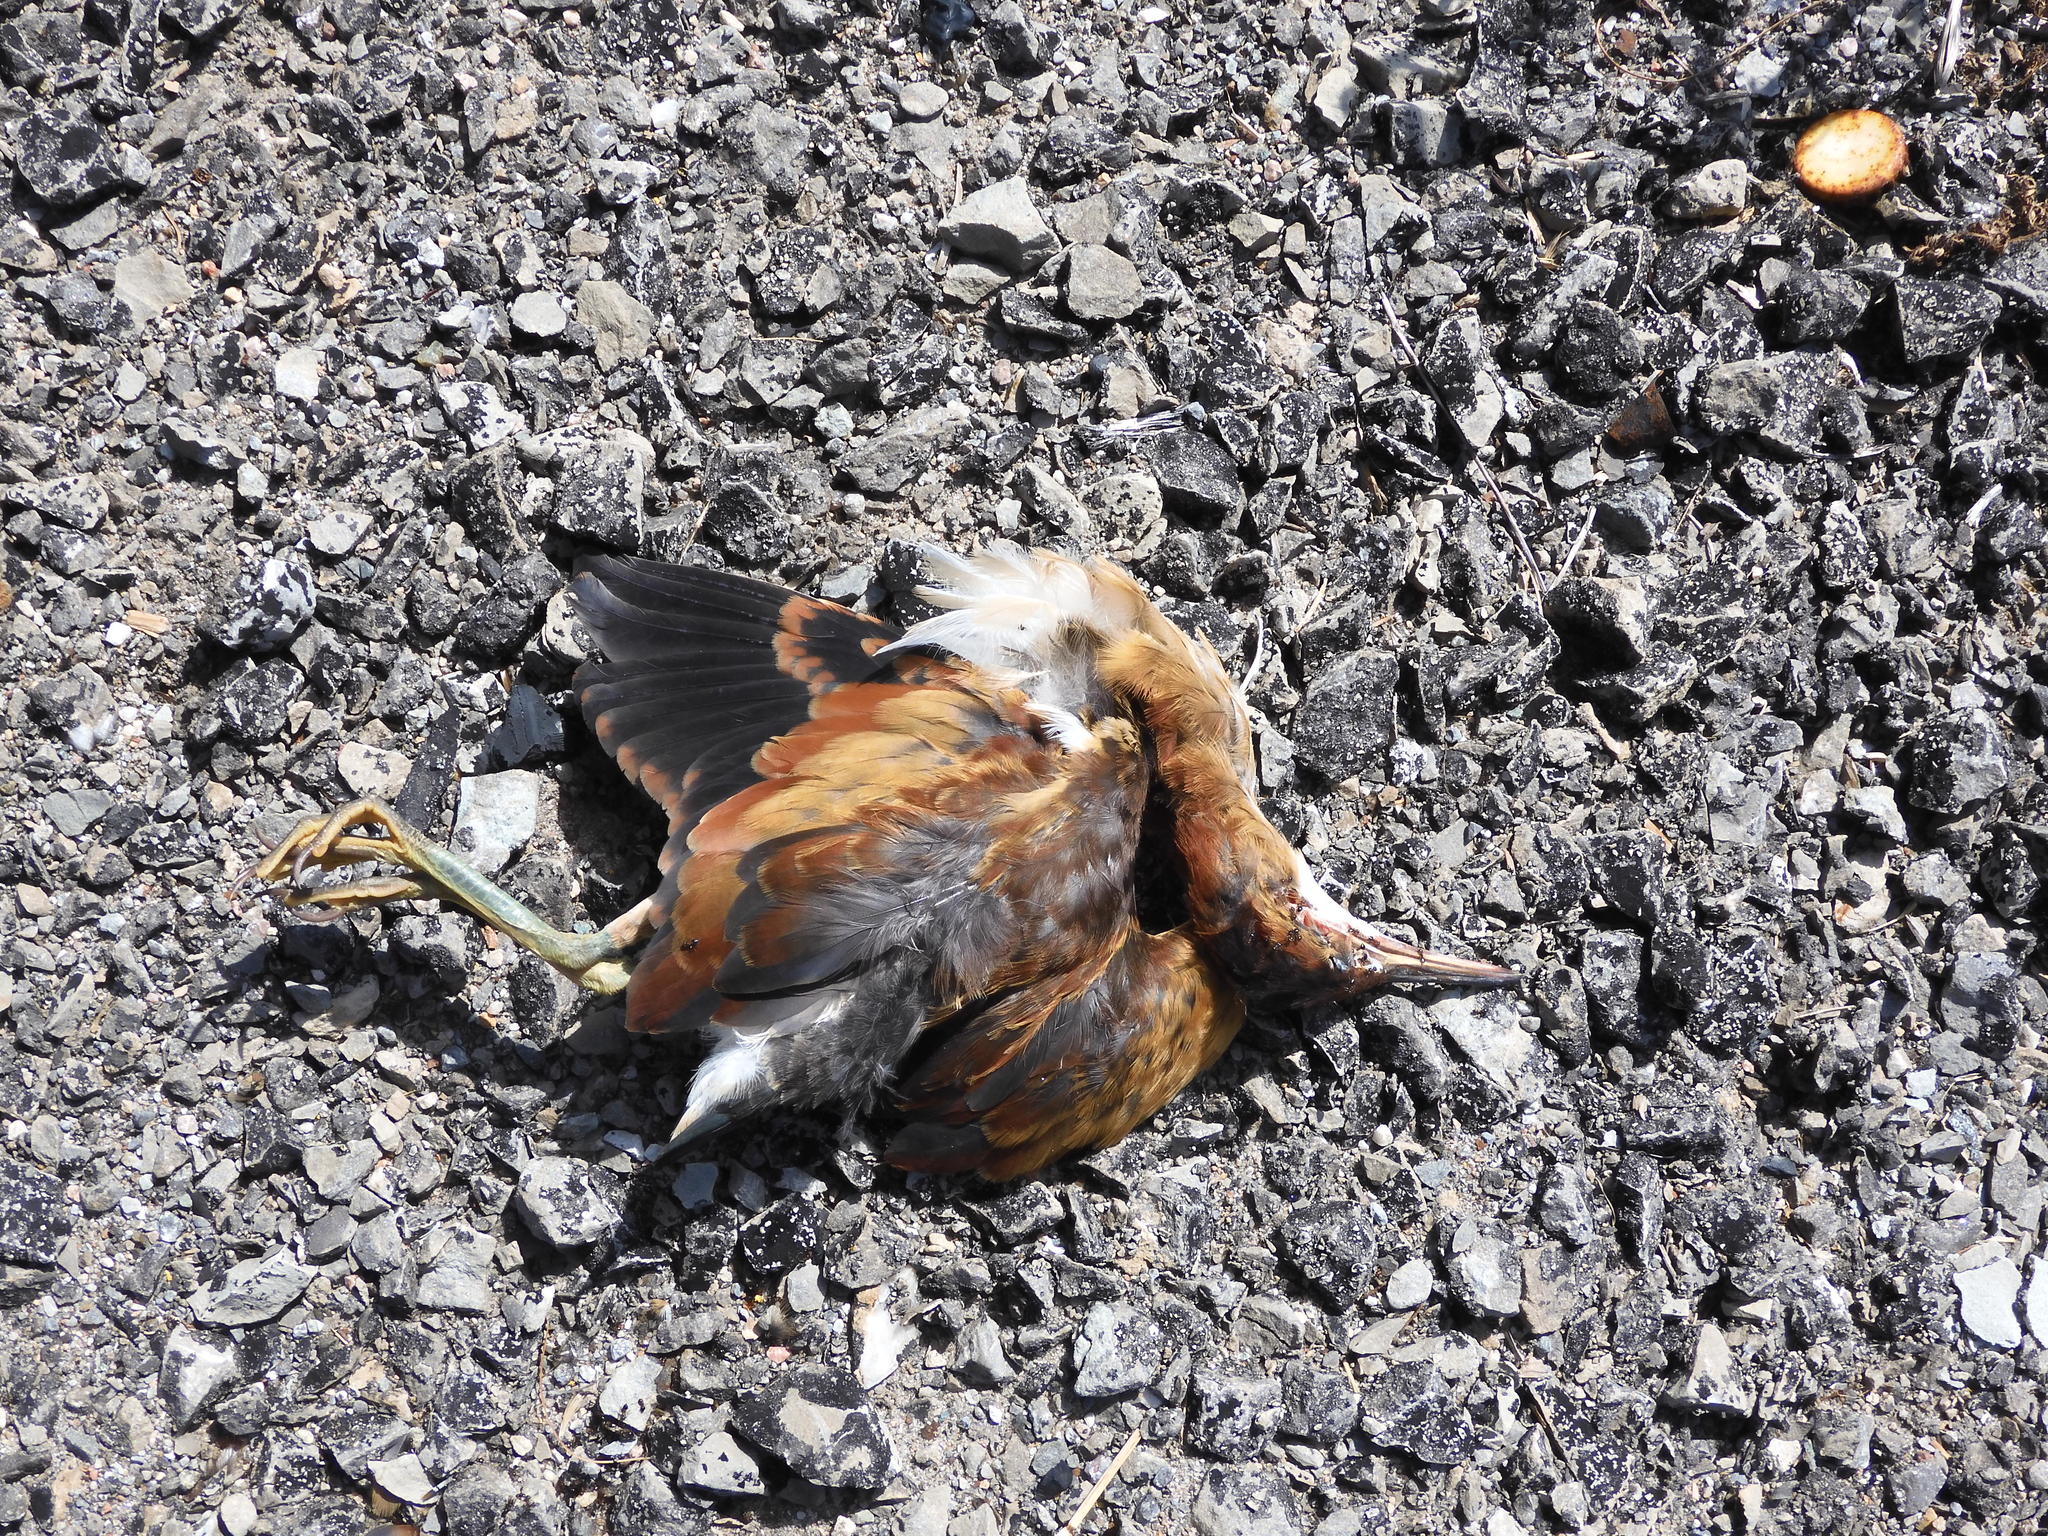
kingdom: Animalia
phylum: Chordata
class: Aves
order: Pelecaniformes
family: Ardeidae
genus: Ixobrychus
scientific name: Ixobrychus exilis
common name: Least bittern
